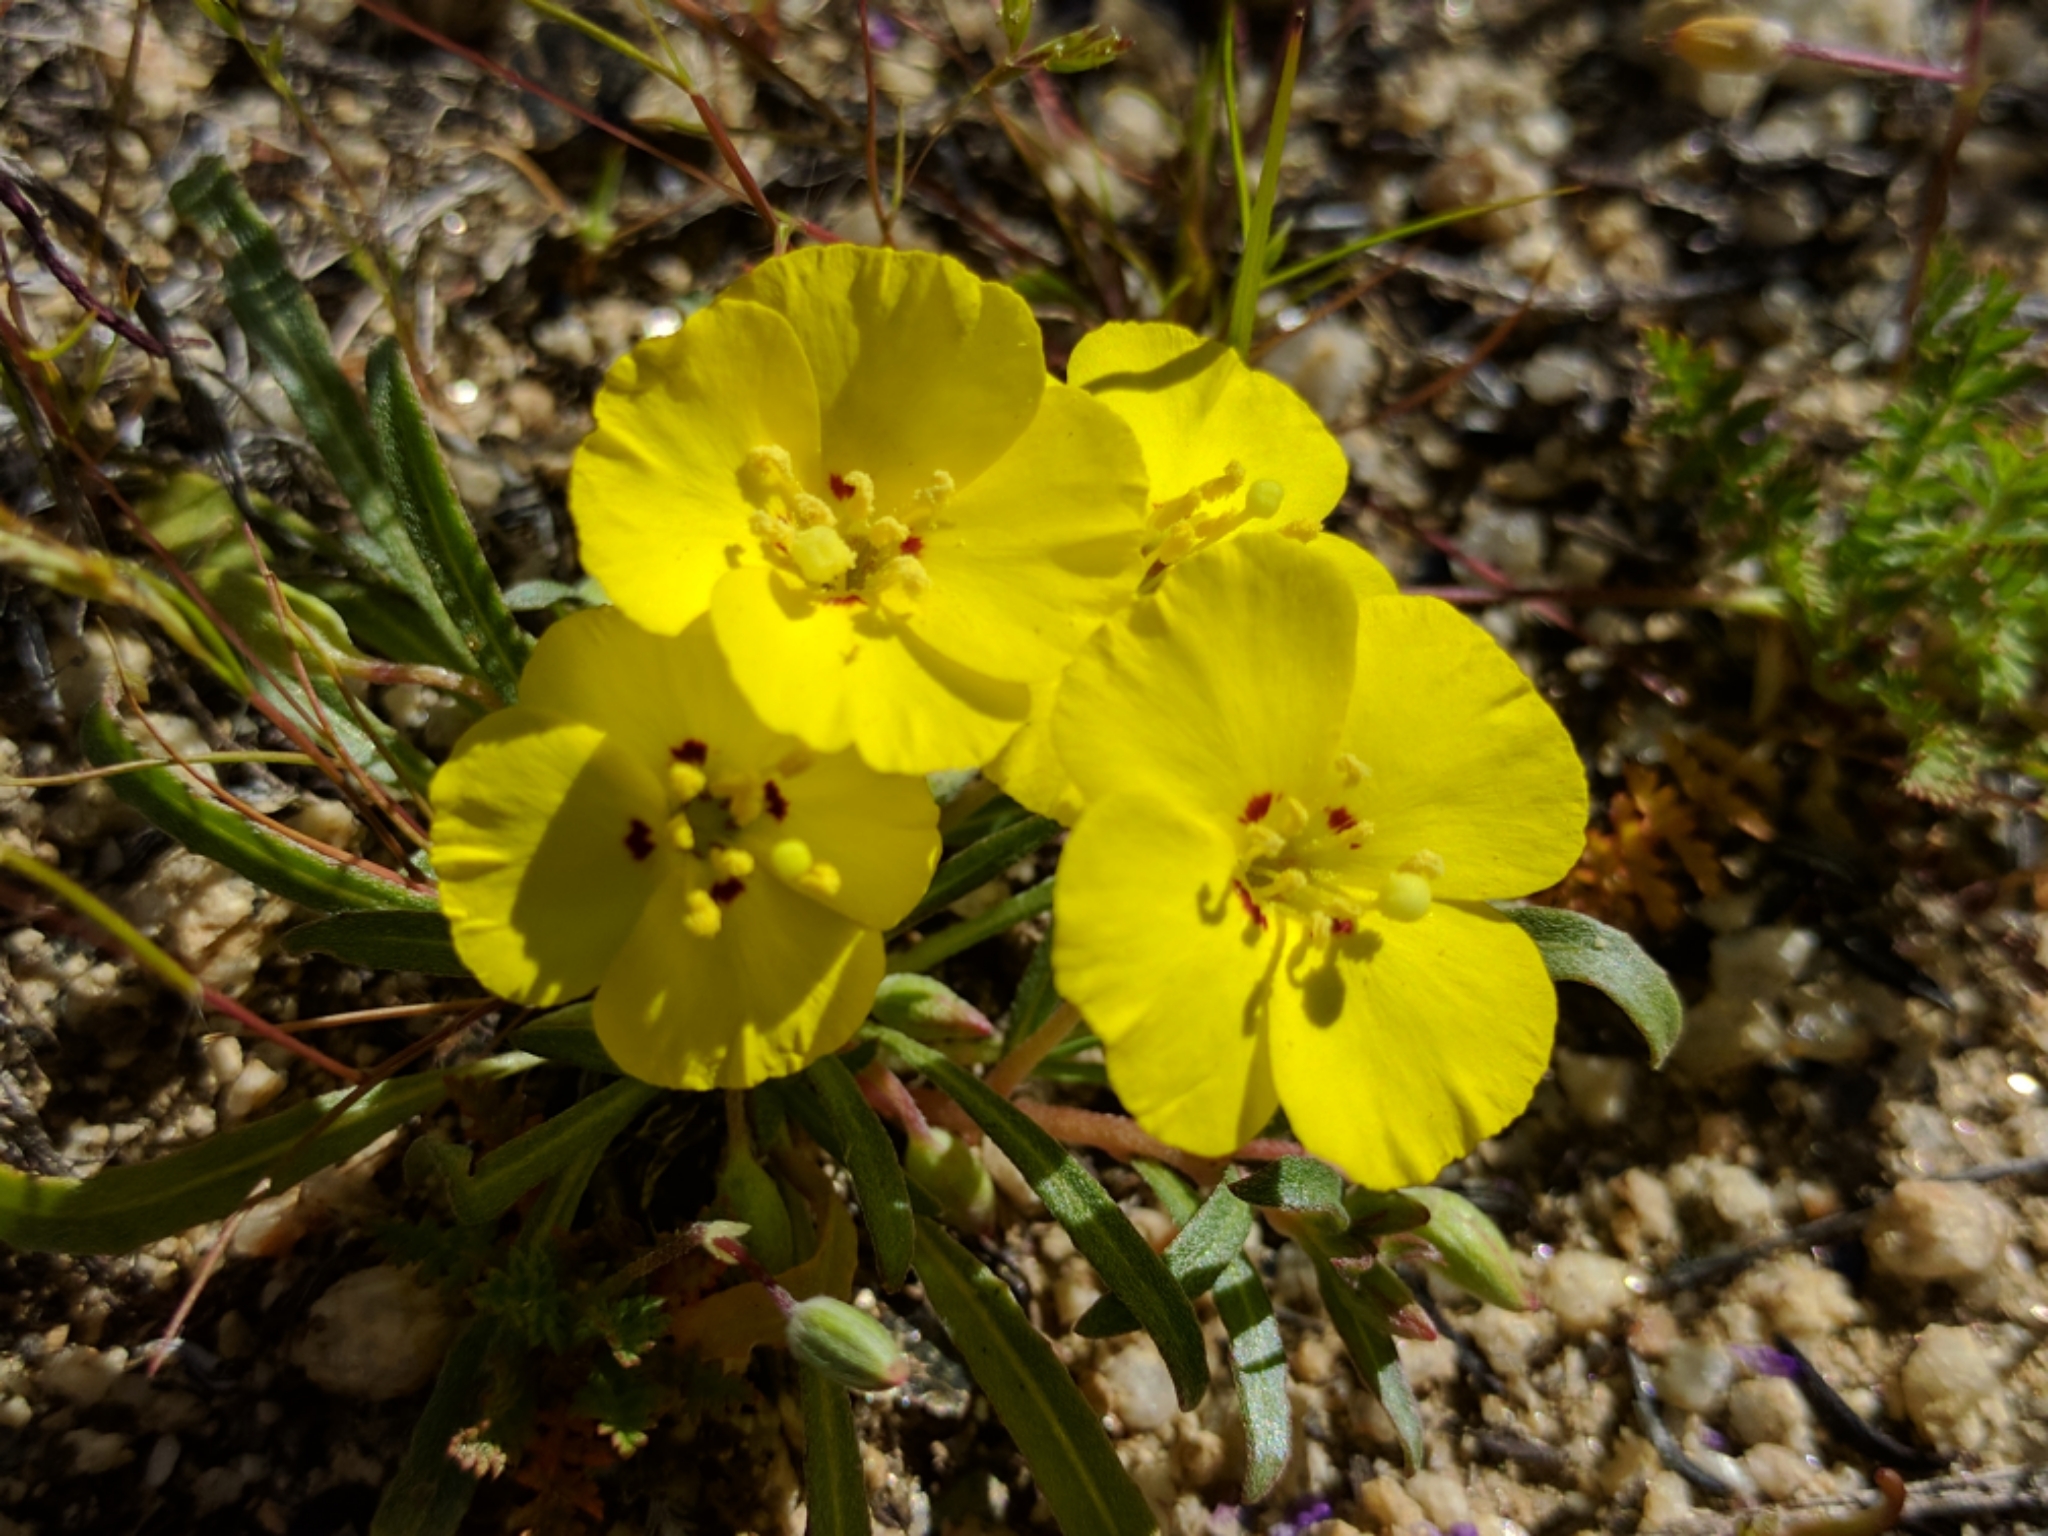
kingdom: Plantae
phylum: Tracheophyta
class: Magnoliopsida
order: Myrtales
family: Onagraceae
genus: Camissoniopsis
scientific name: Camissoniopsis bistorta
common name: Southern suncup
